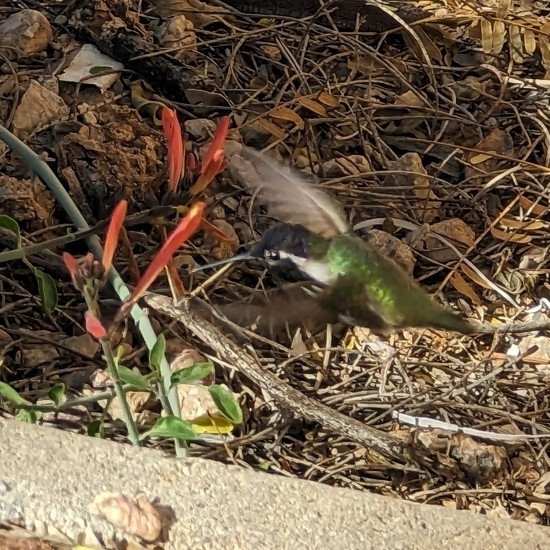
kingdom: Animalia
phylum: Chordata
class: Aves
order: Apodiformes
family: Trochilidae
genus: Calypte
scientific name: Calypte costae
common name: Costa's hummingbird
